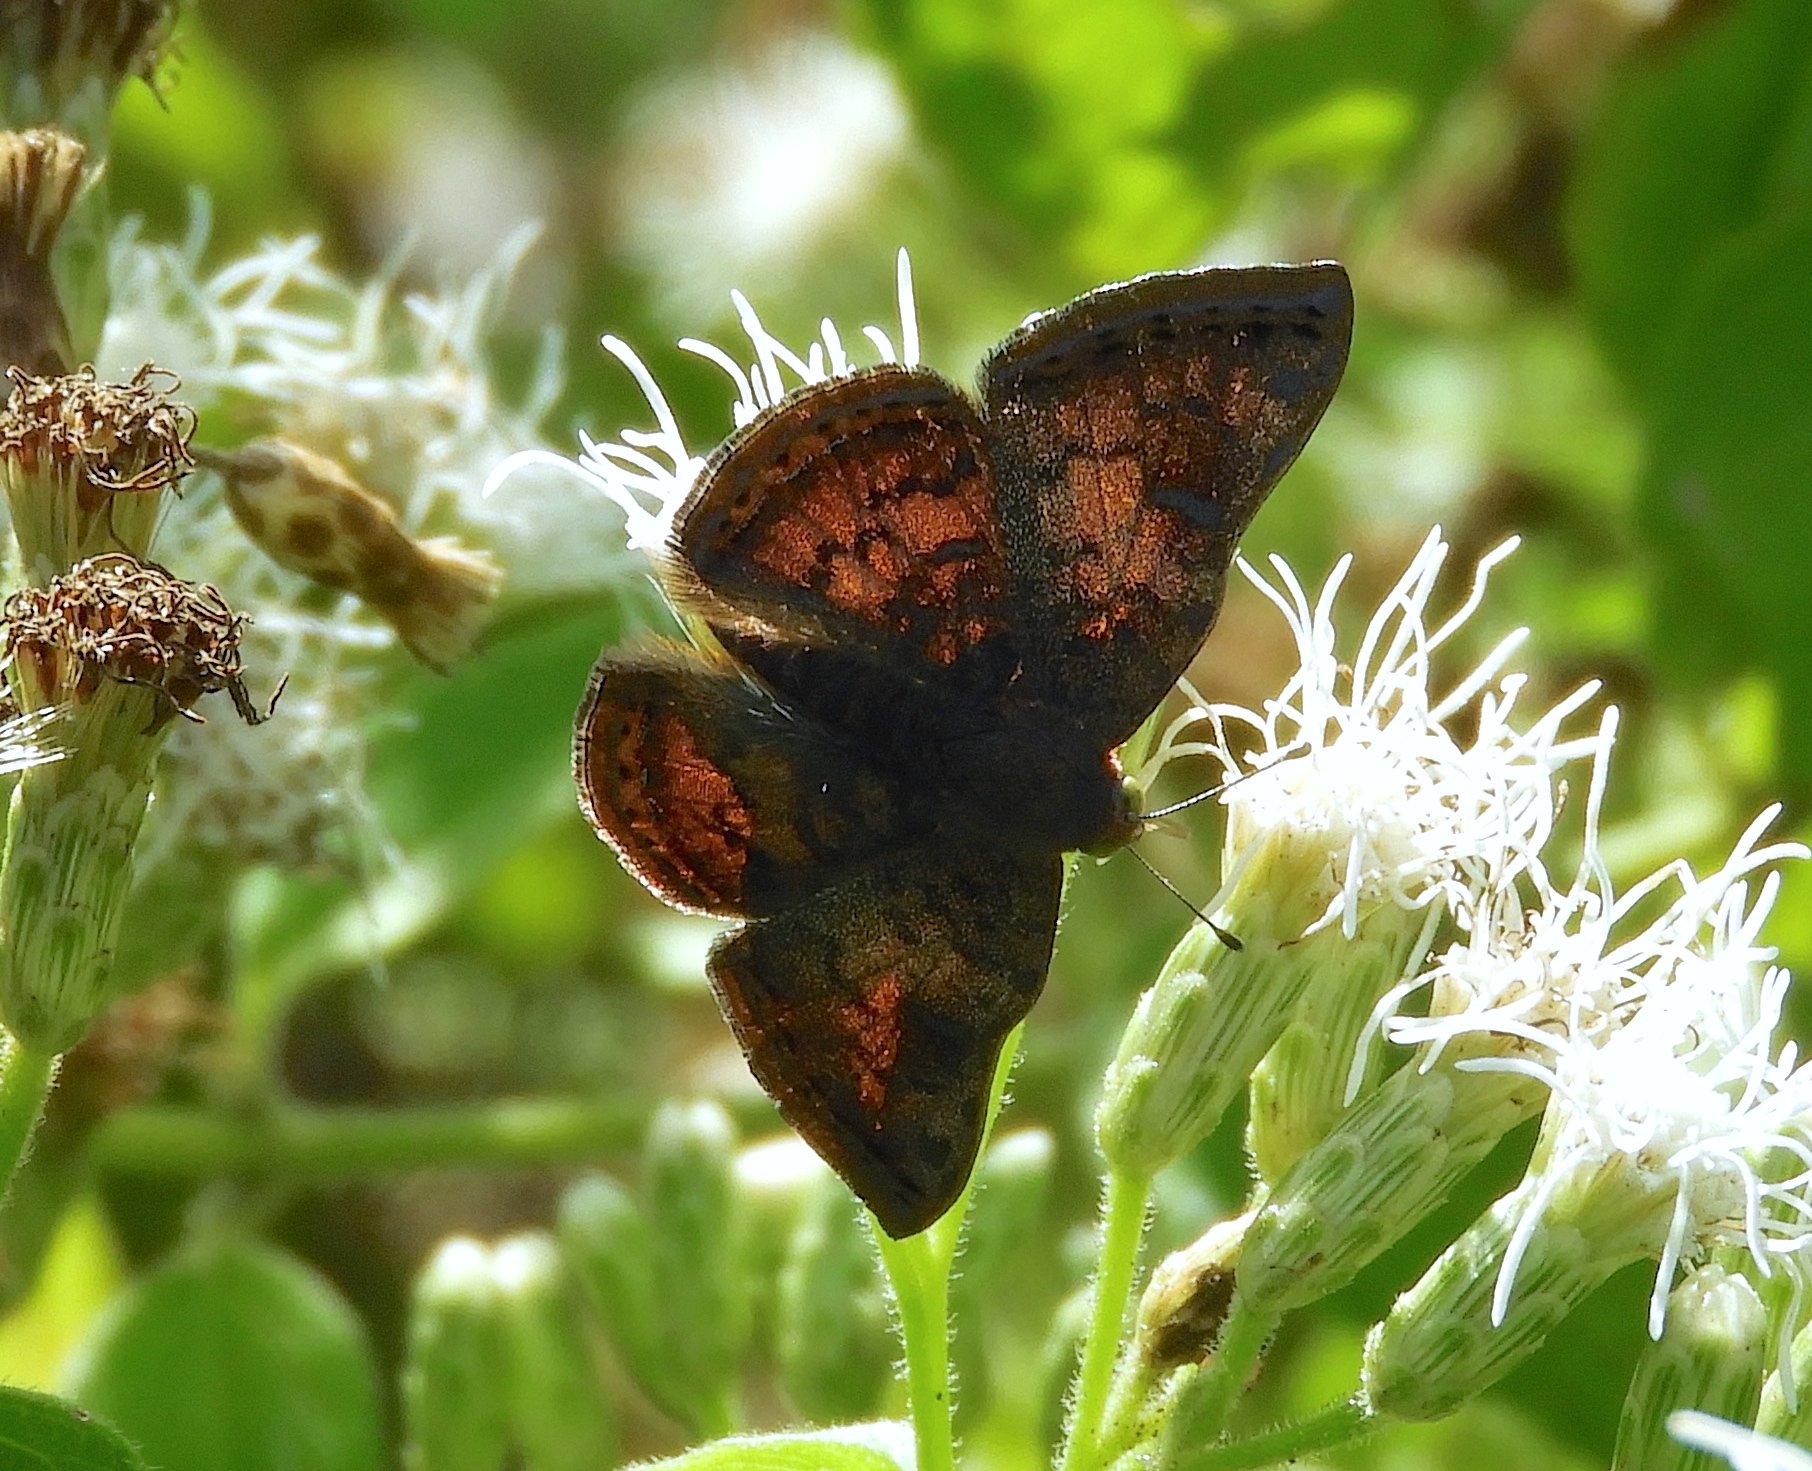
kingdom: Animalia
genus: Caria
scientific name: Caria ino
